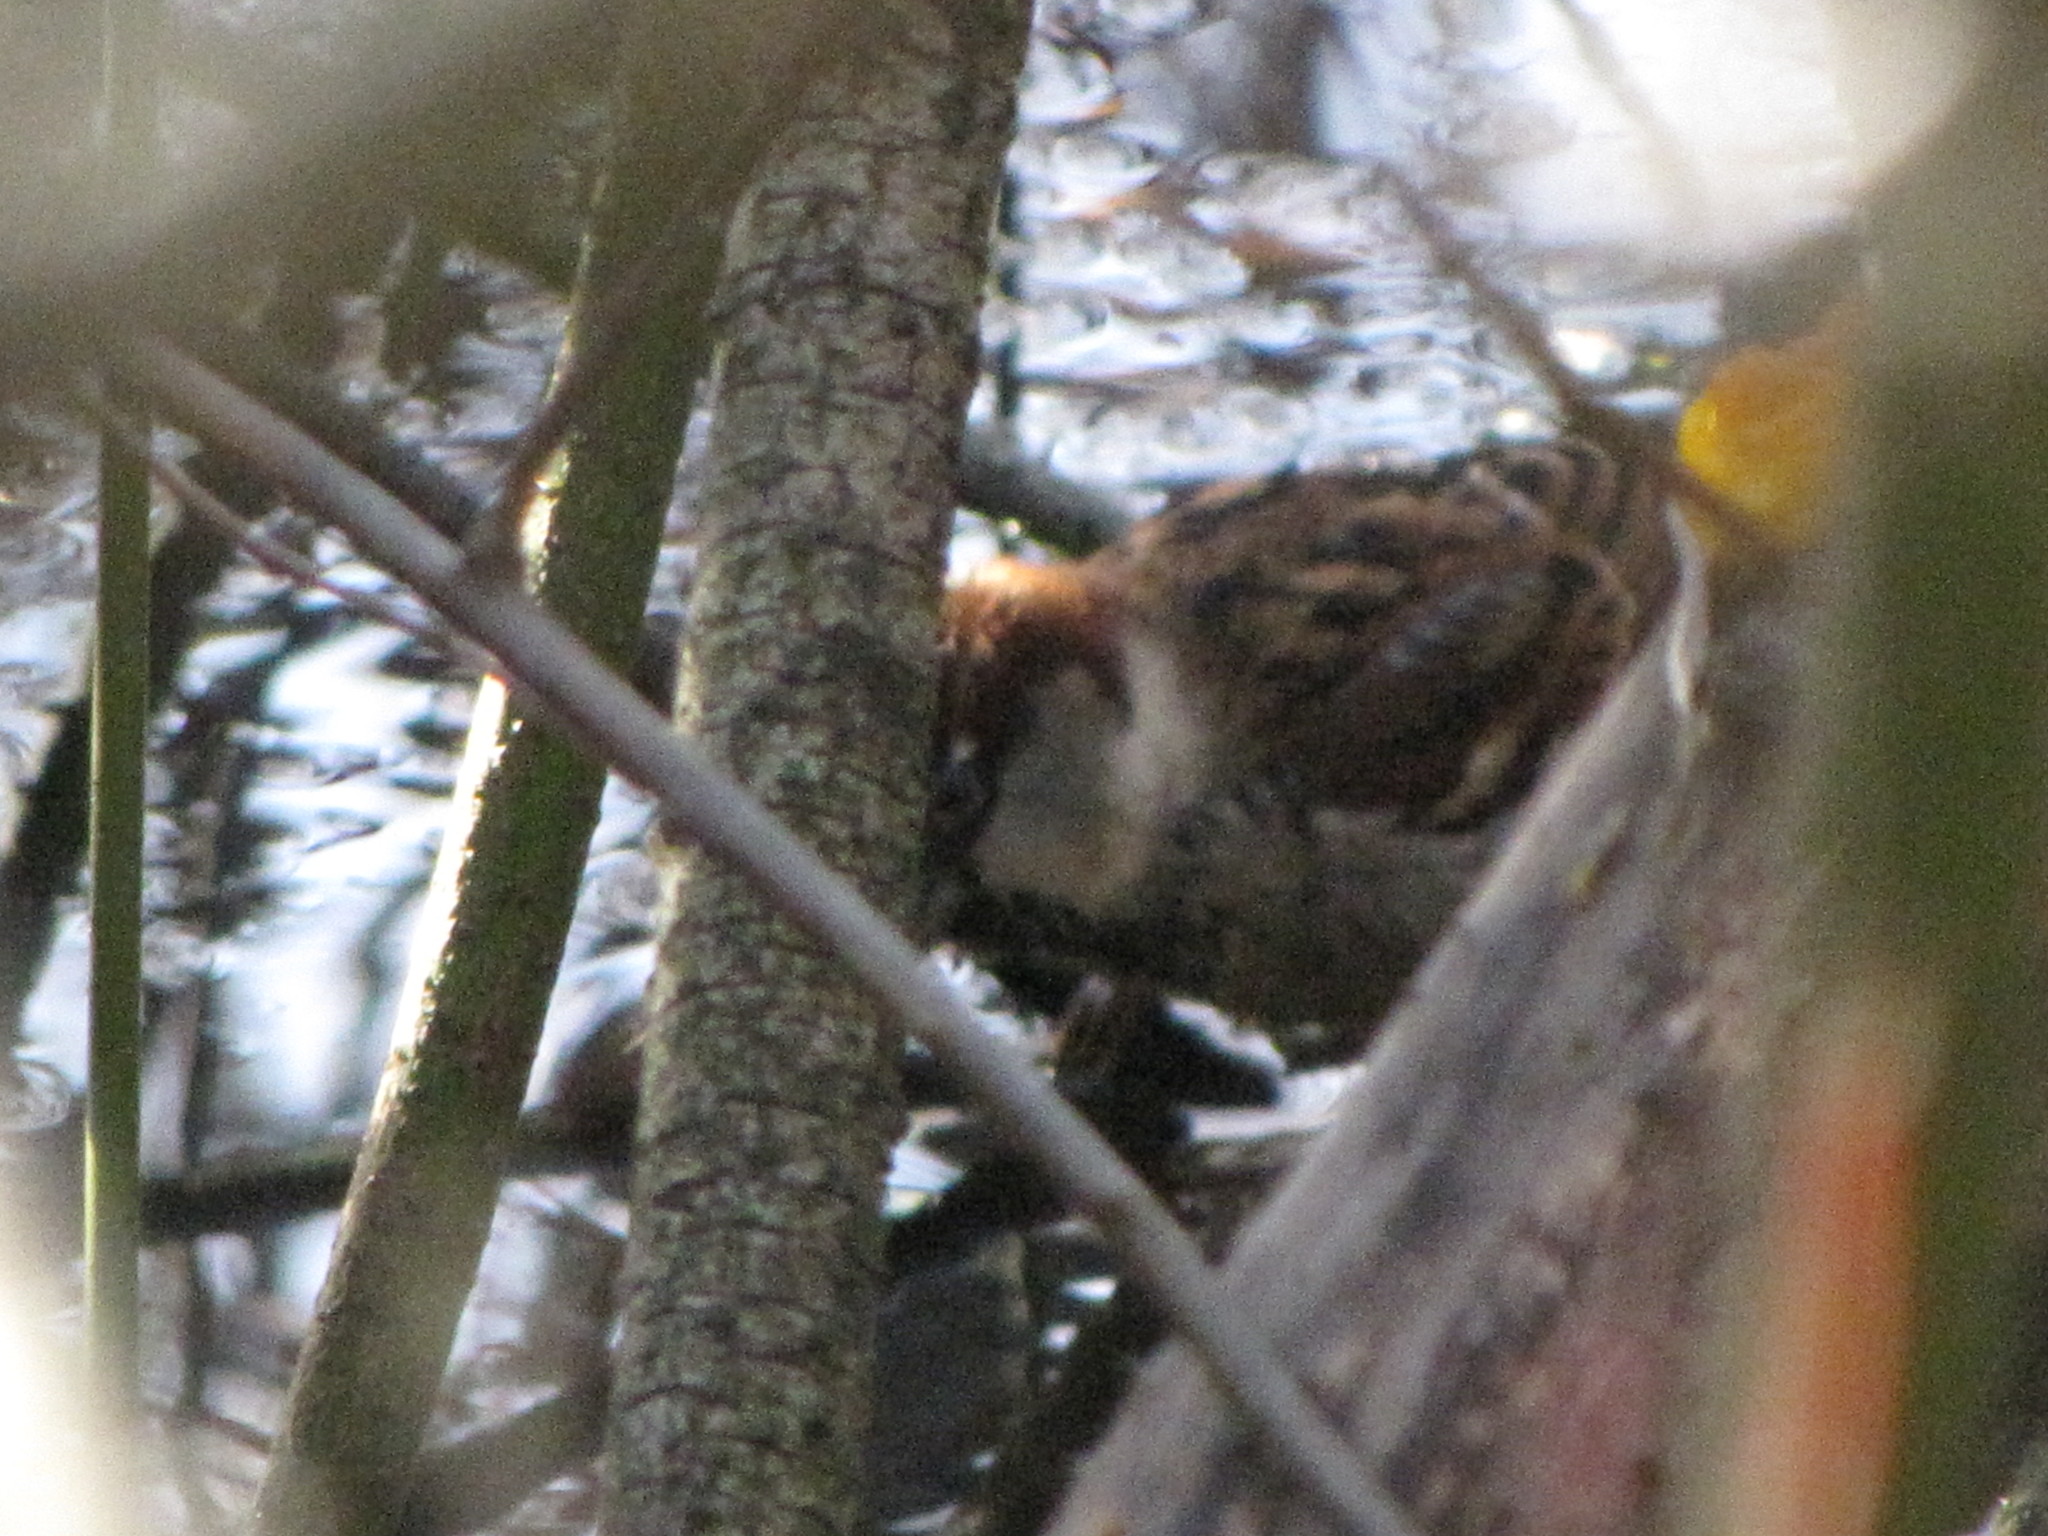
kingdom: Animalia
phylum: Chordata
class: Aves
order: Passeriformes
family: Passeridae
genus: Passer
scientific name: Passer domesticus
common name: House sparrow
